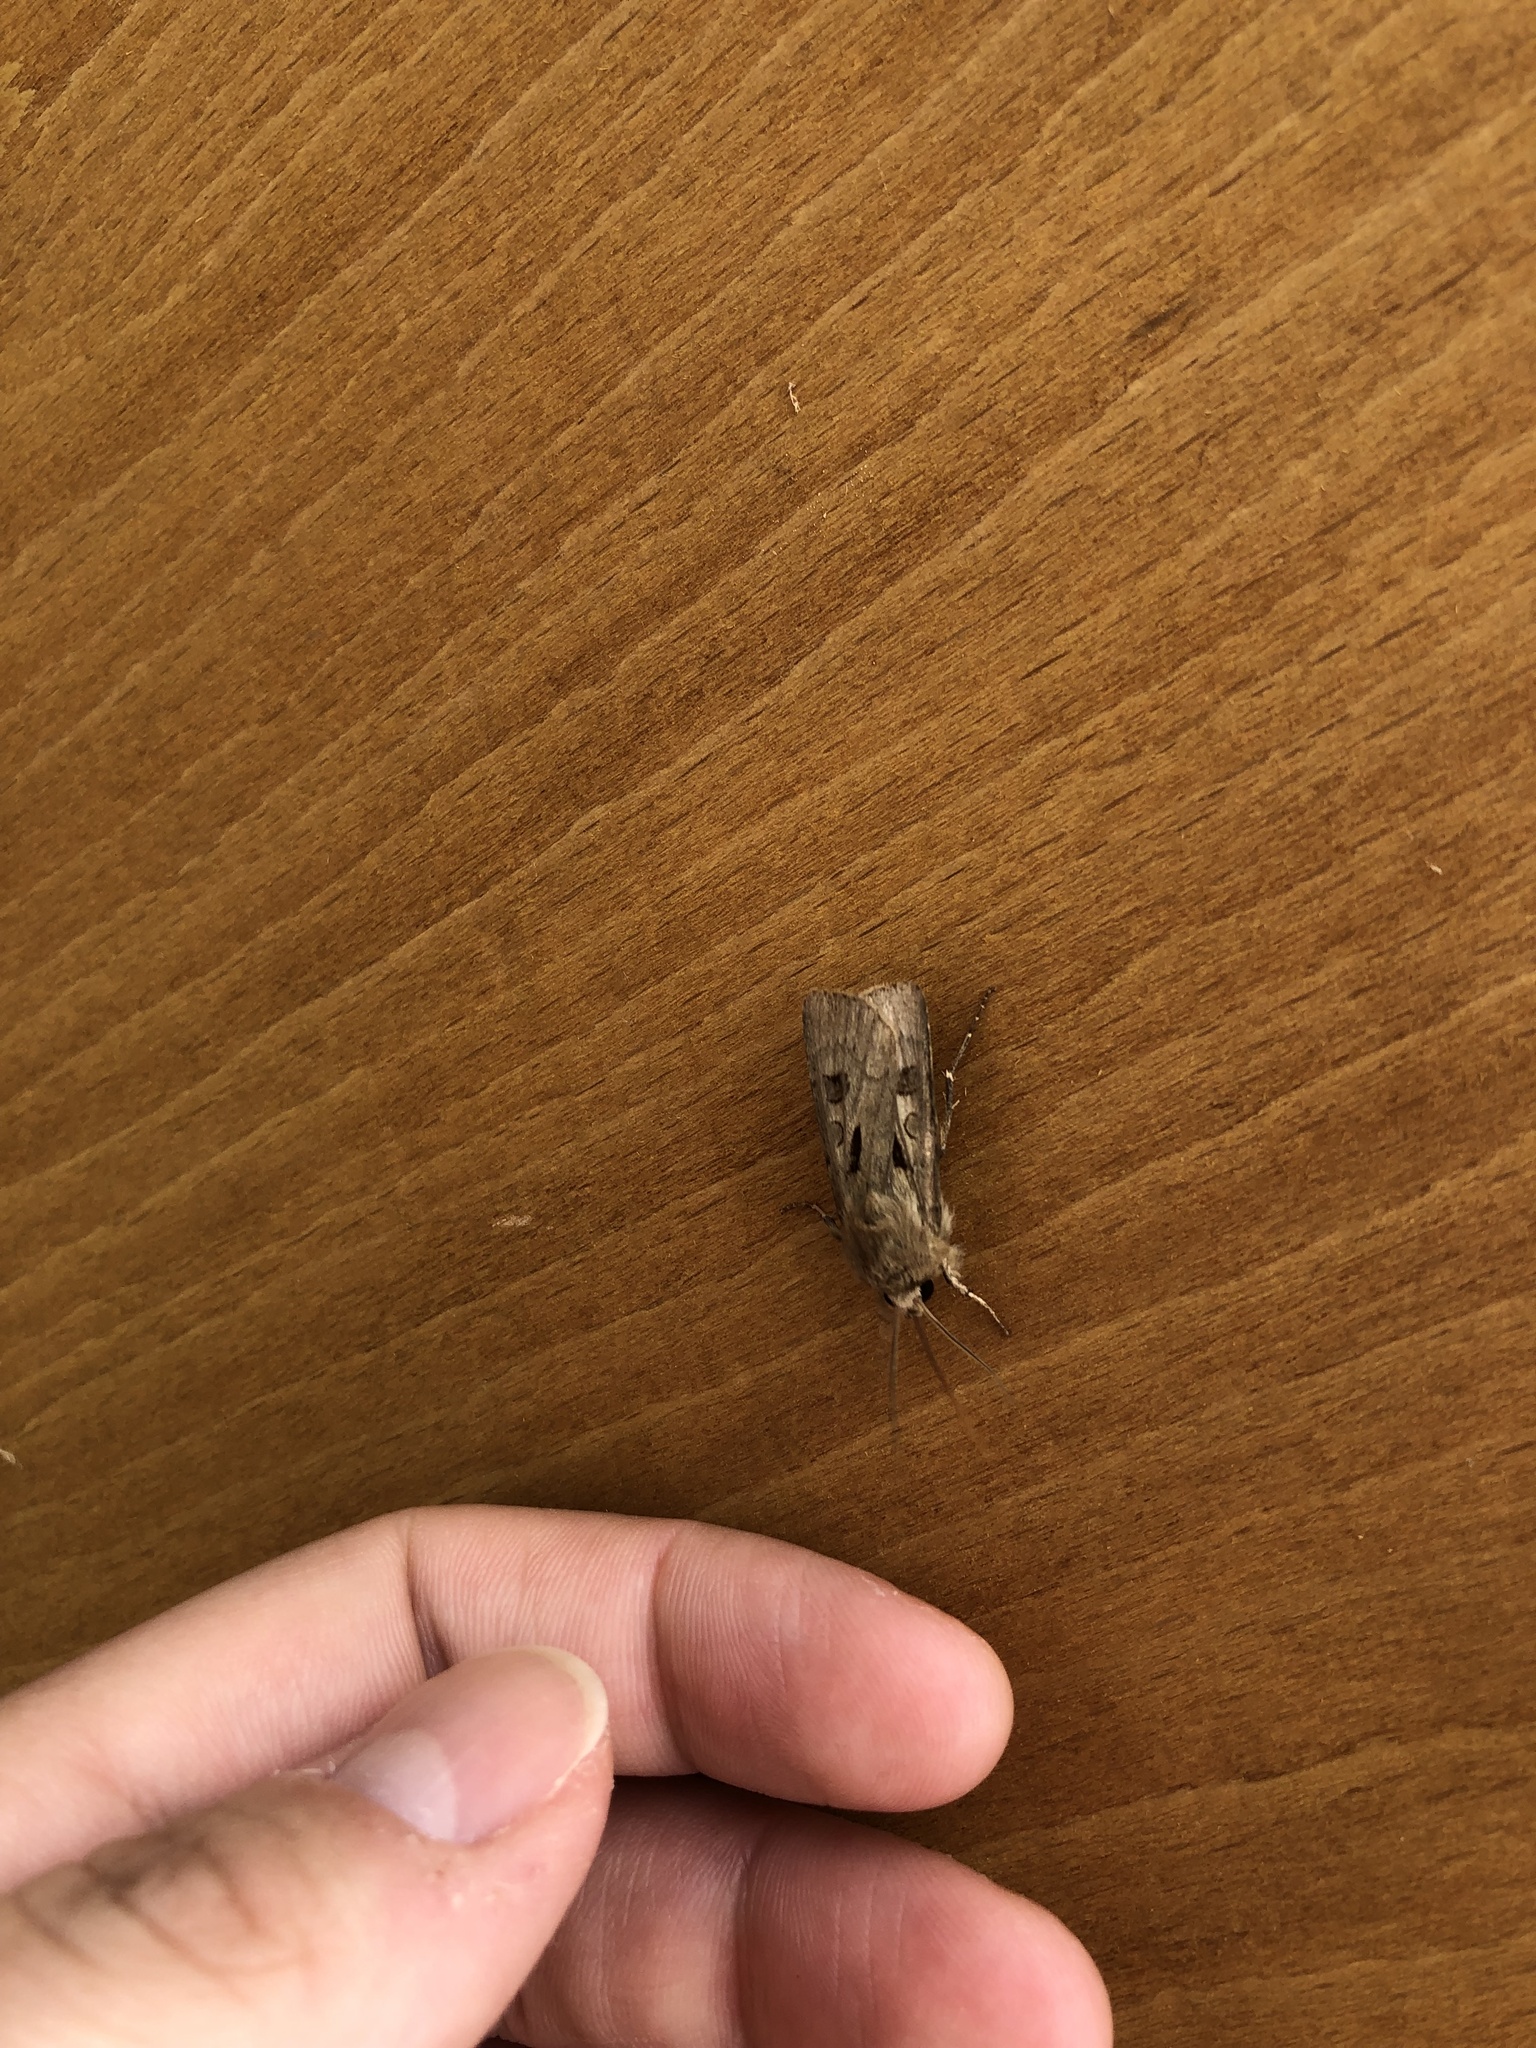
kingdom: Animalia
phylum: Arthropoda
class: Insecta
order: Lepidoptera
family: Noctuidae
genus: Agrotis
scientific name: Agrotis exclamationis
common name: Heart and dart
